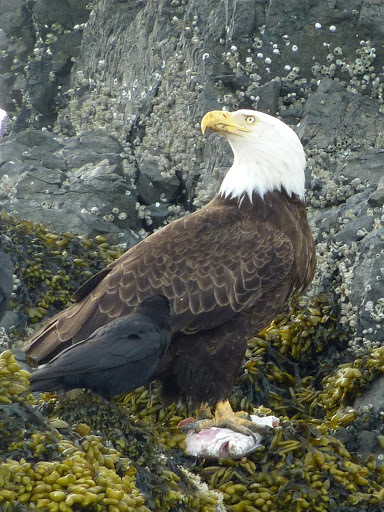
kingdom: Animalia
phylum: Chordata
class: Aves
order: Accipitriformes
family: Accipitridae
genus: Haliaeetus
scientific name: Haliaeetus leucocephalus
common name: Bald eagle
